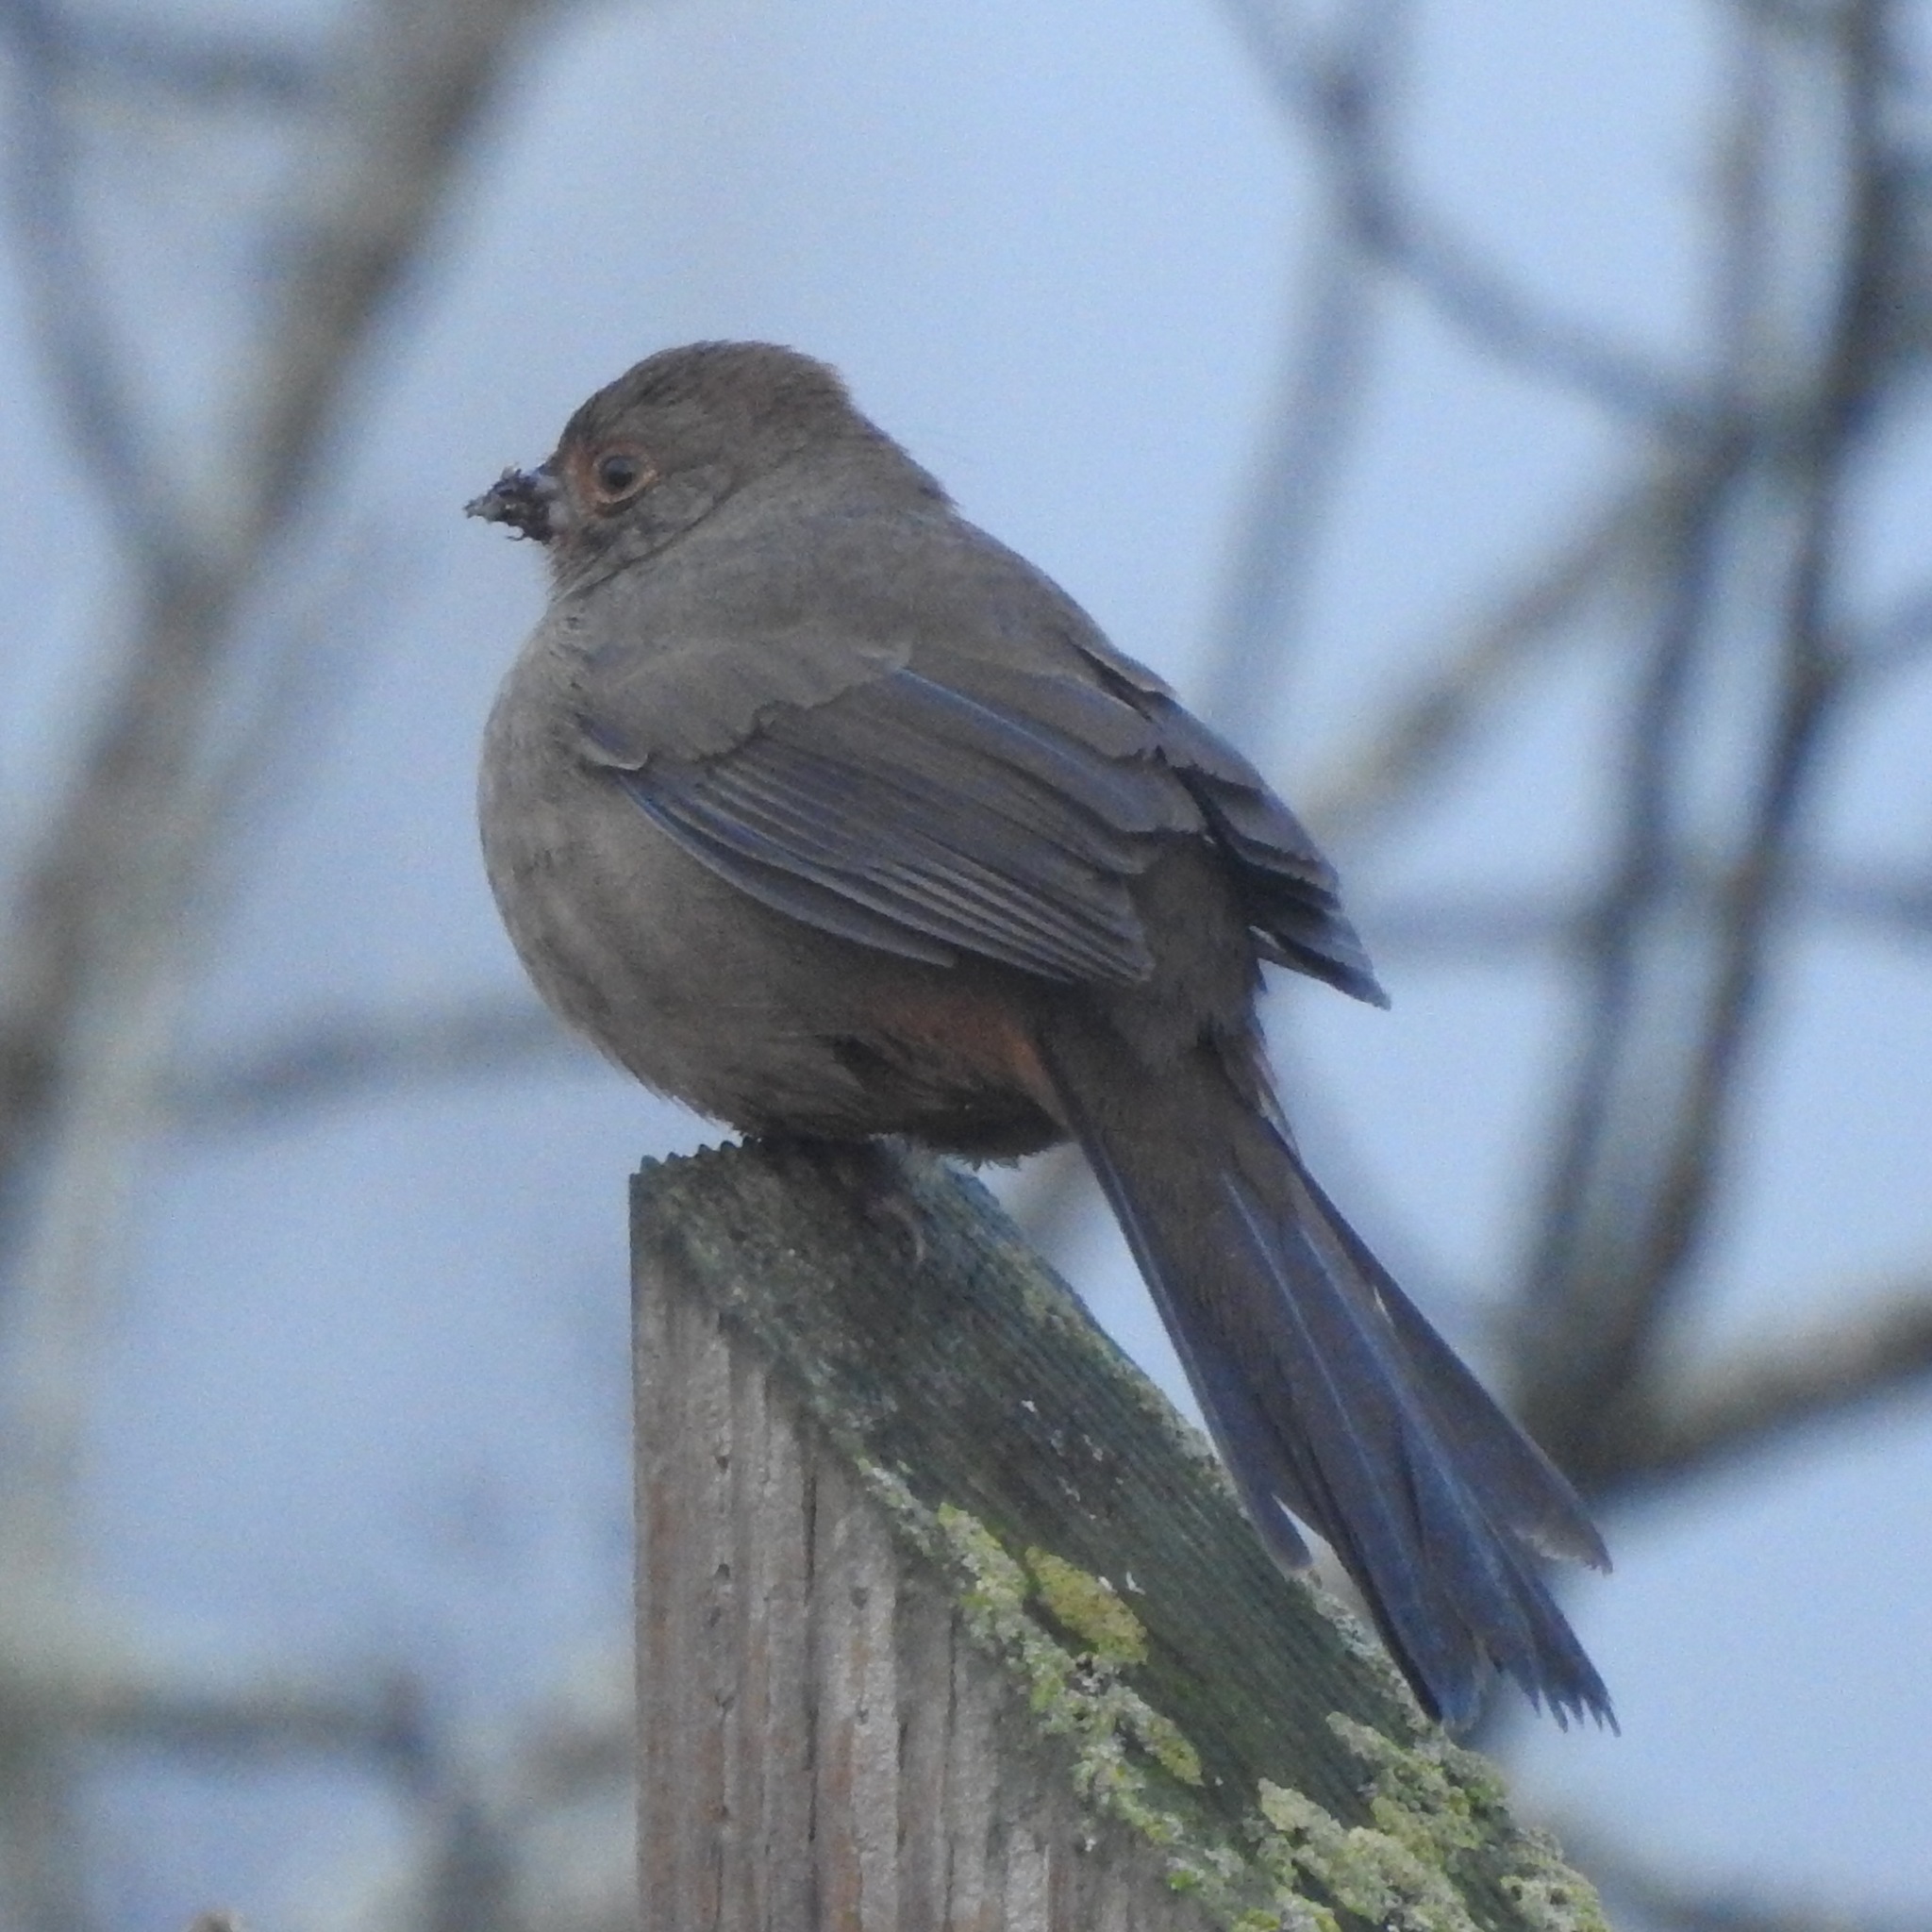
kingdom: Animalia
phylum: Chordata
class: Aves
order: Passeriformes
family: Passerellidae
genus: Melozone
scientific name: Melozone crissalis
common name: California towhee
